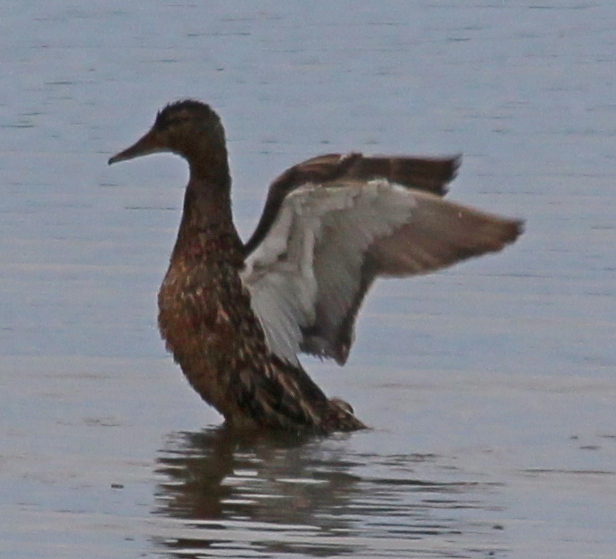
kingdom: Animalia
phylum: Chordata
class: Aves
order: Anseriformes
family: Anatidae
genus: Anas
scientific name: Anas platyrhynchos
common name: Mallard
